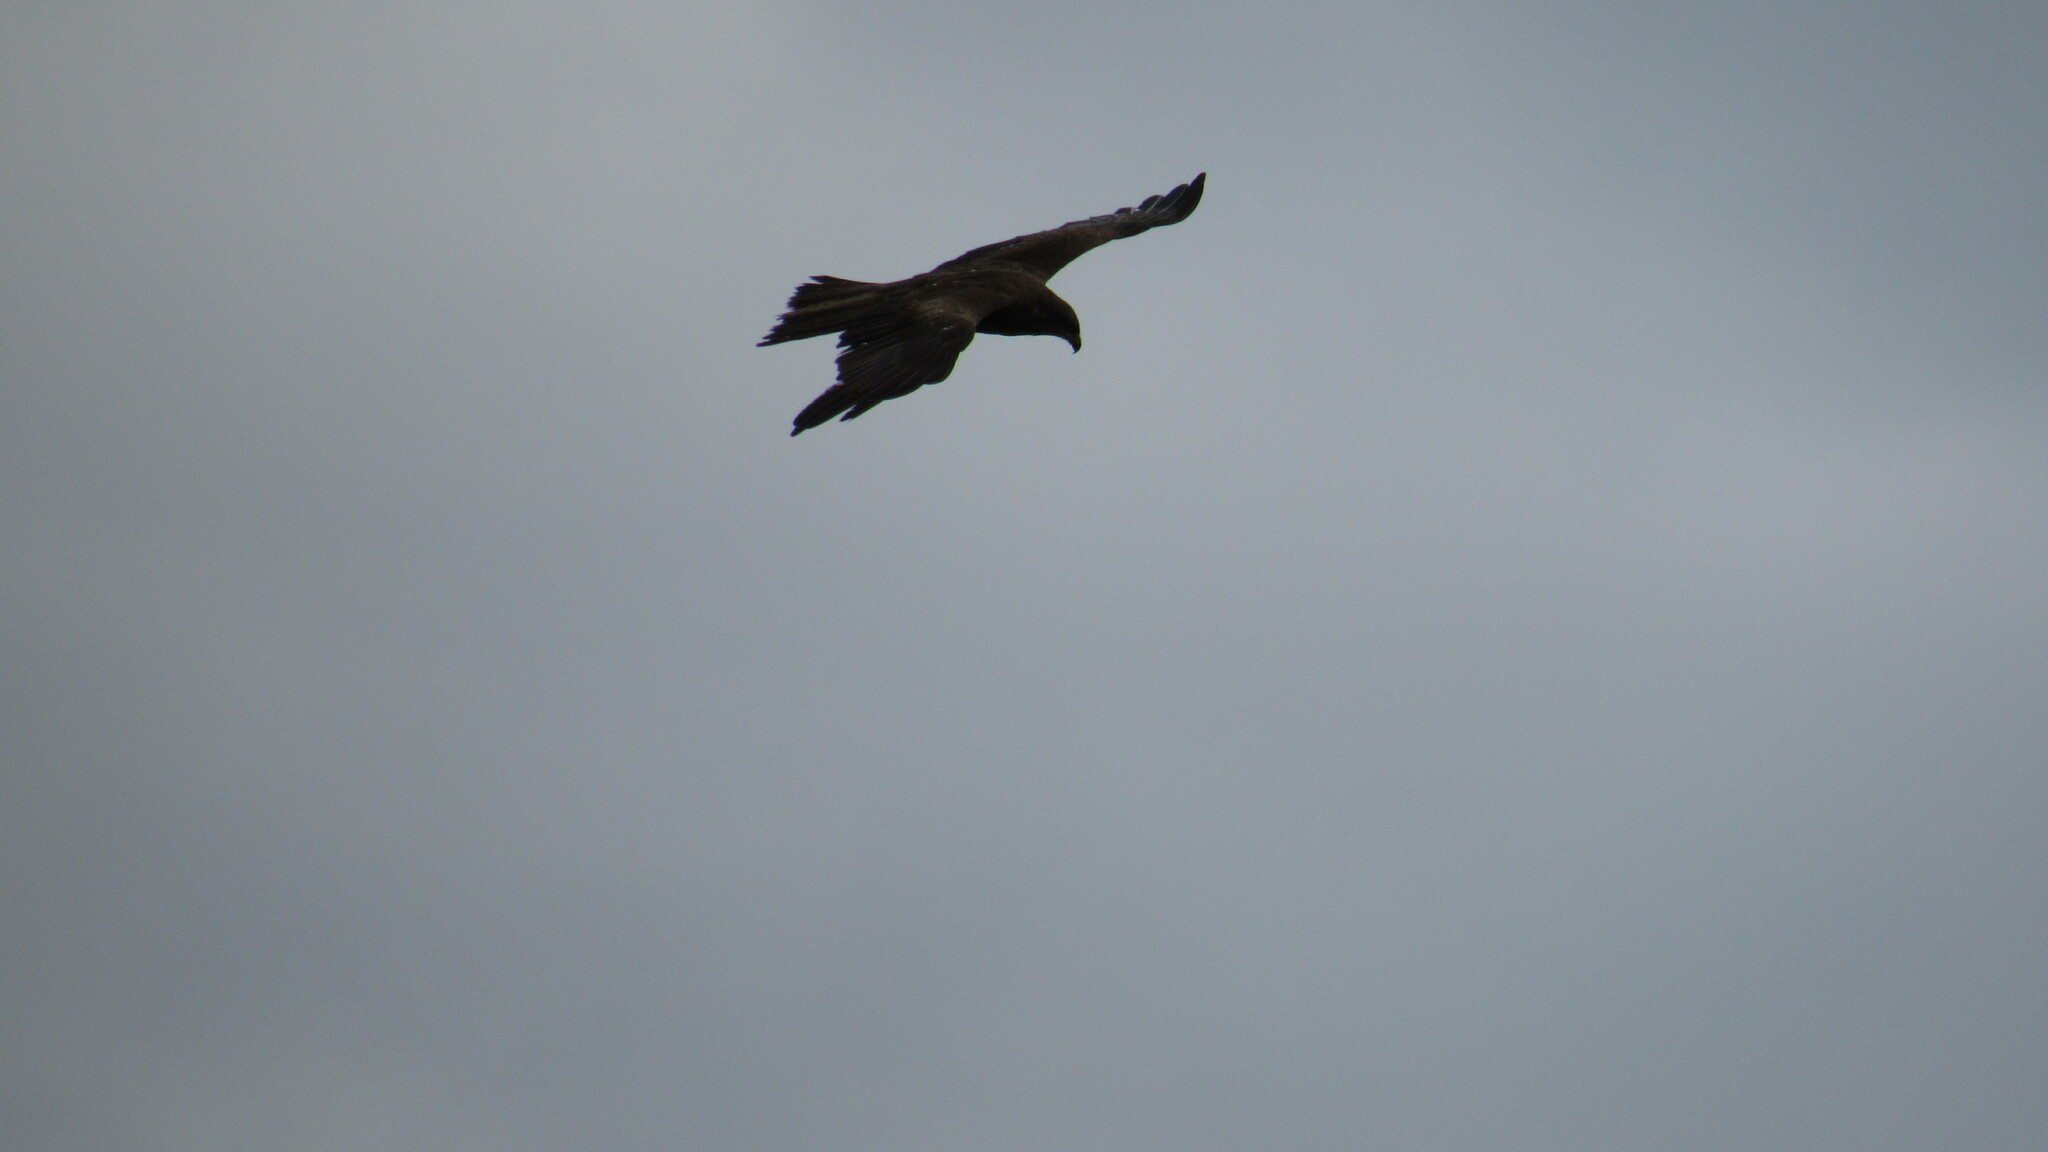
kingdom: Animalia
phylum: Chordata
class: Aves
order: Accipitriformes
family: Accipitridae
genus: Milvus
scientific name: Milvus migrans
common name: Black kite
